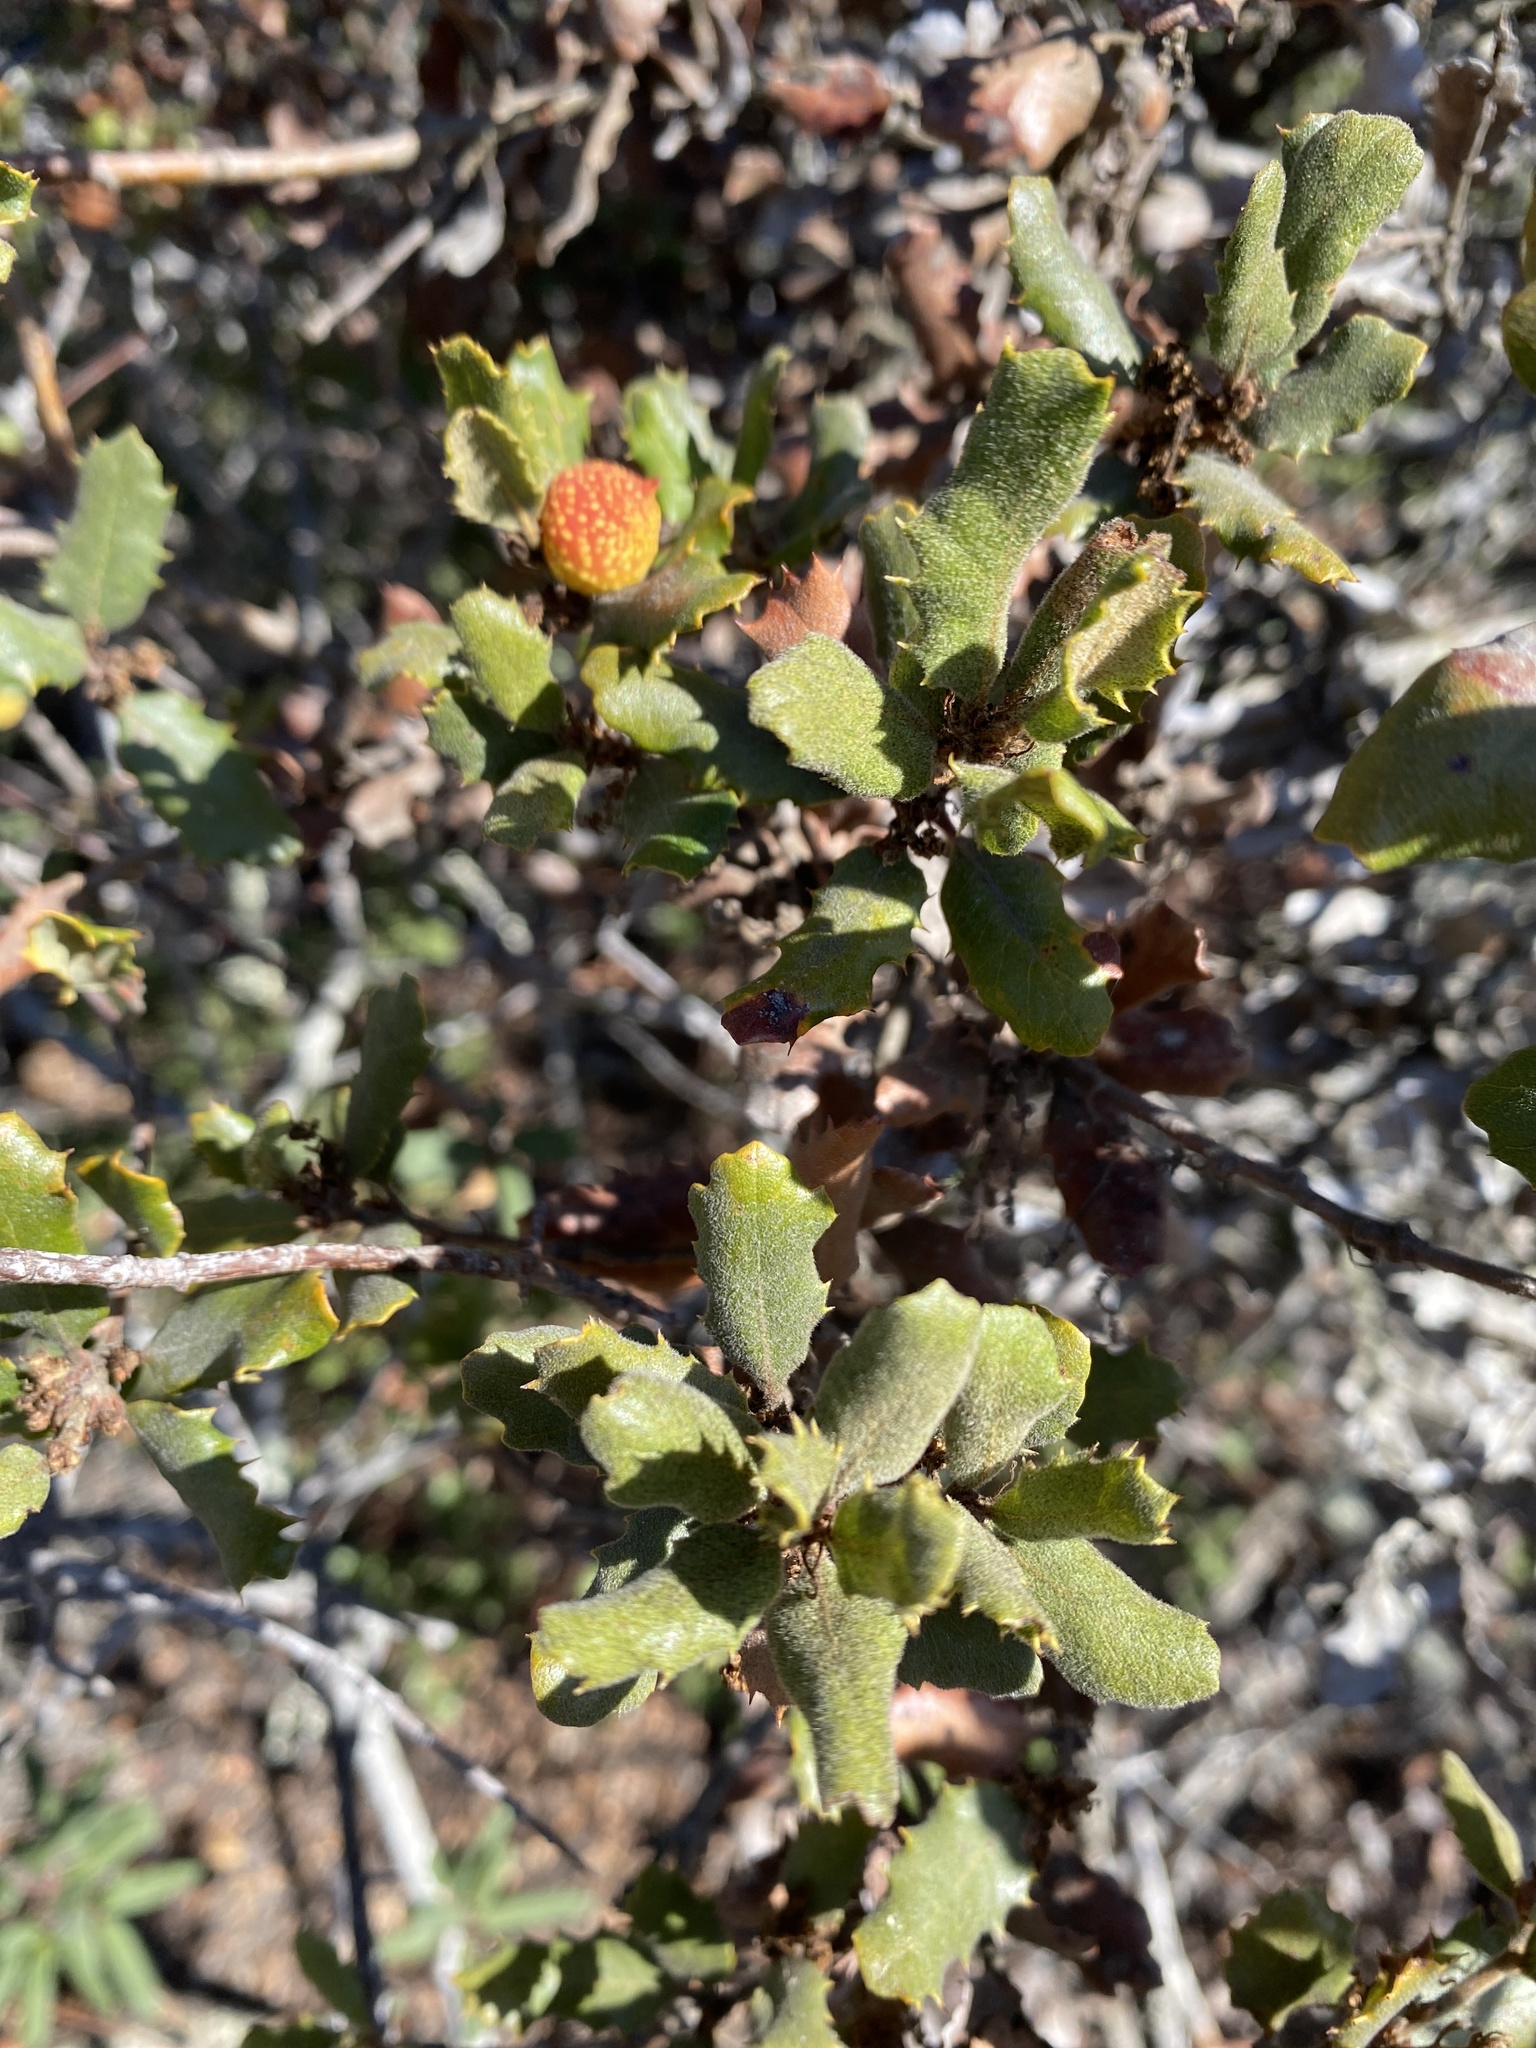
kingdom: Animalia
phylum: Arthropoda
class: Insecta
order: Hymenoptera
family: Cynipidae
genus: Burnettweldia
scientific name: Burnettweldia
